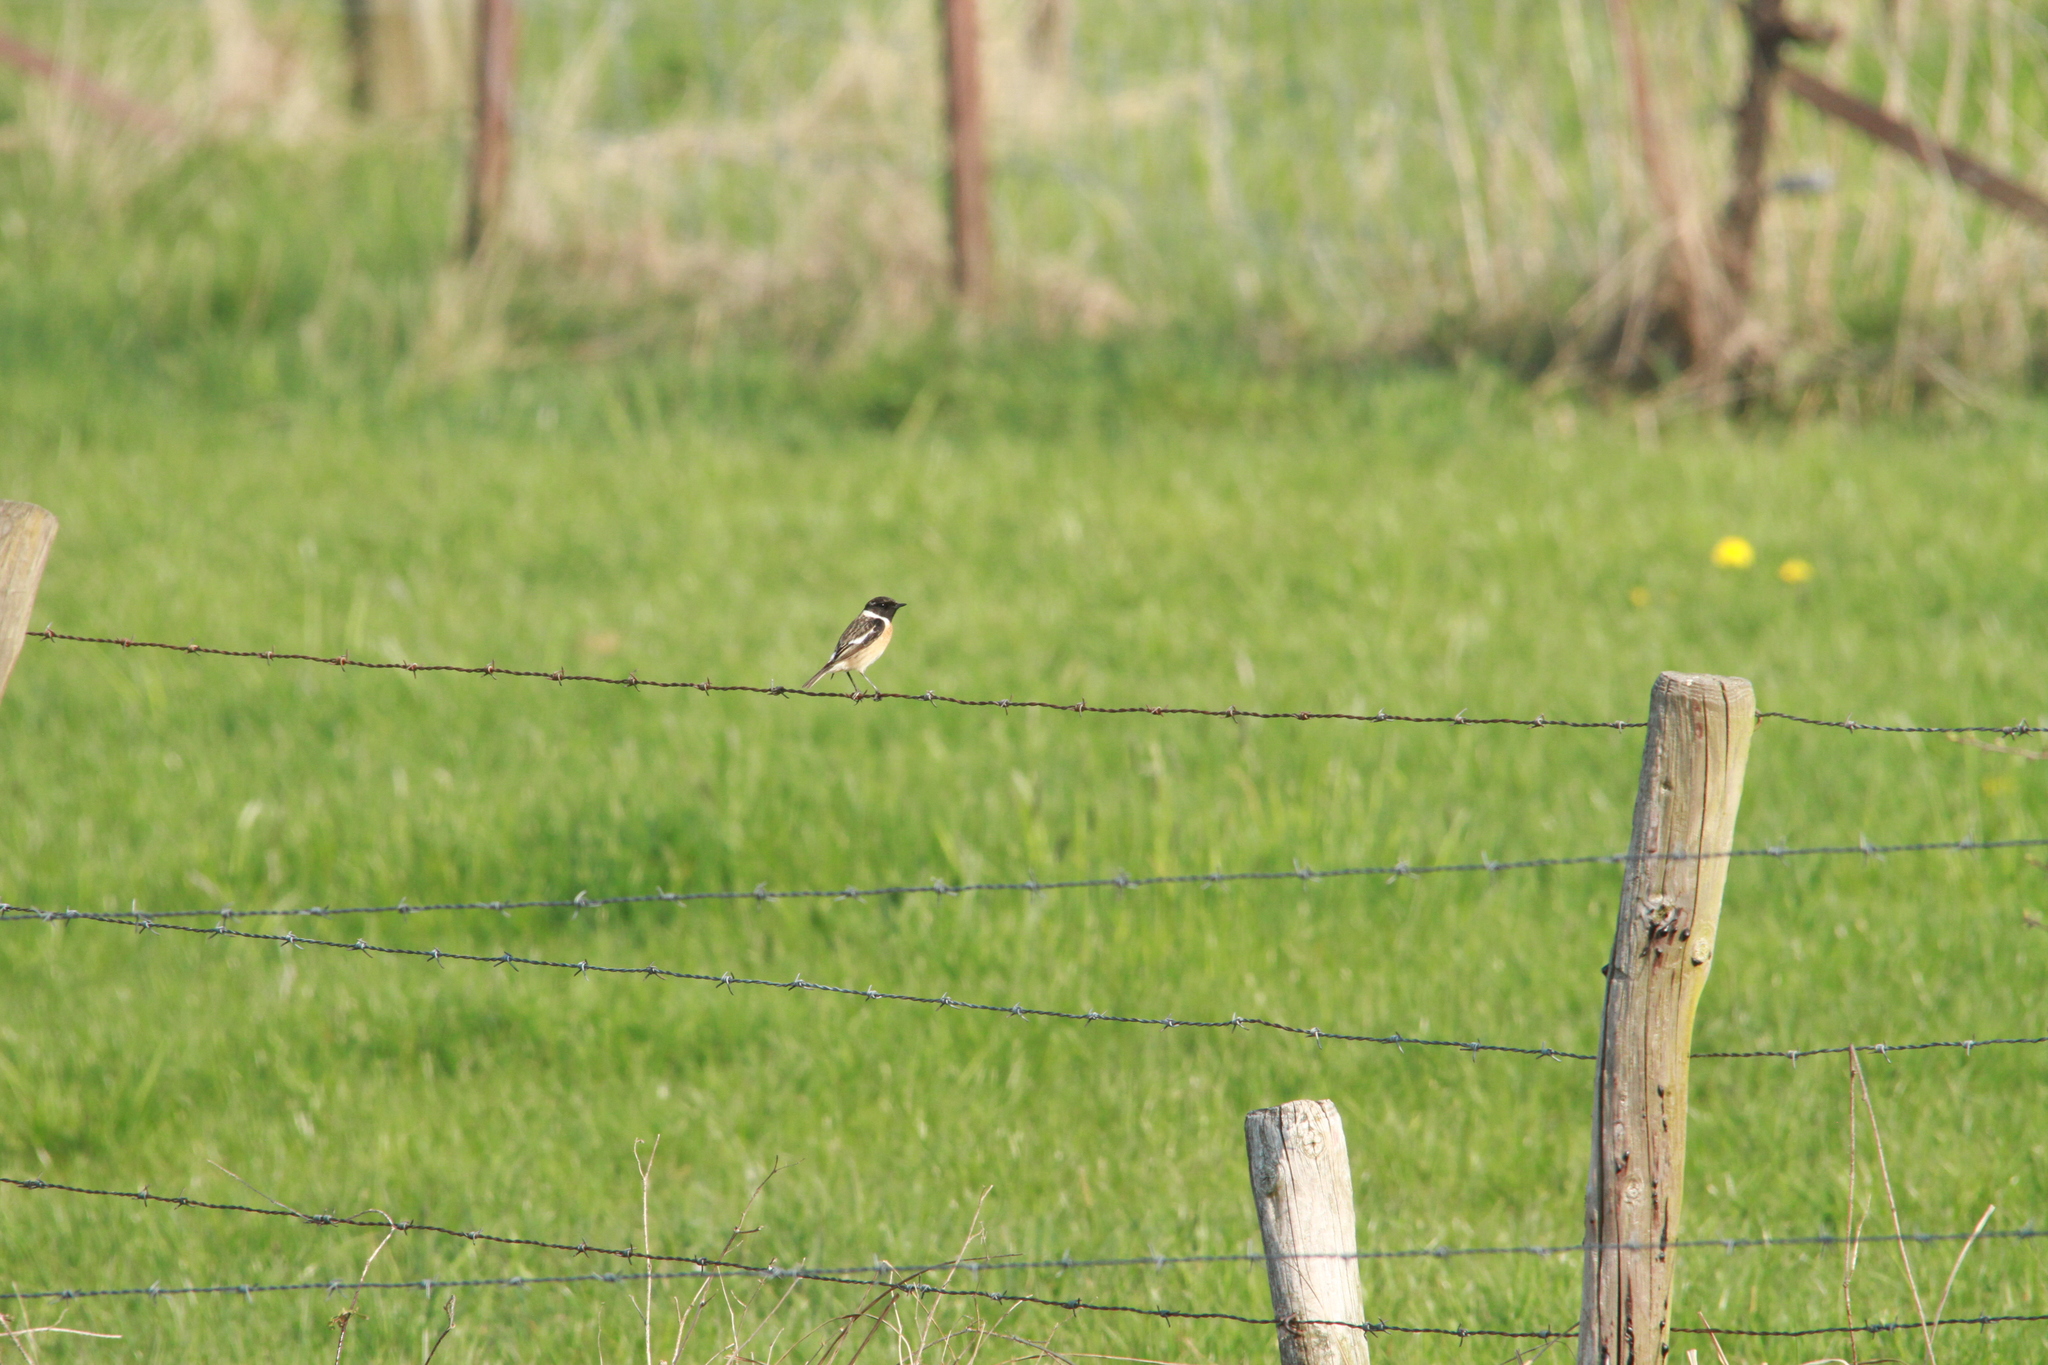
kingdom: Animalia
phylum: Chordata
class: Aves
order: Passeriformes
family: Muscicapidae
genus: Saxicola
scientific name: Saxicola rubicola
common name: European stonechat
